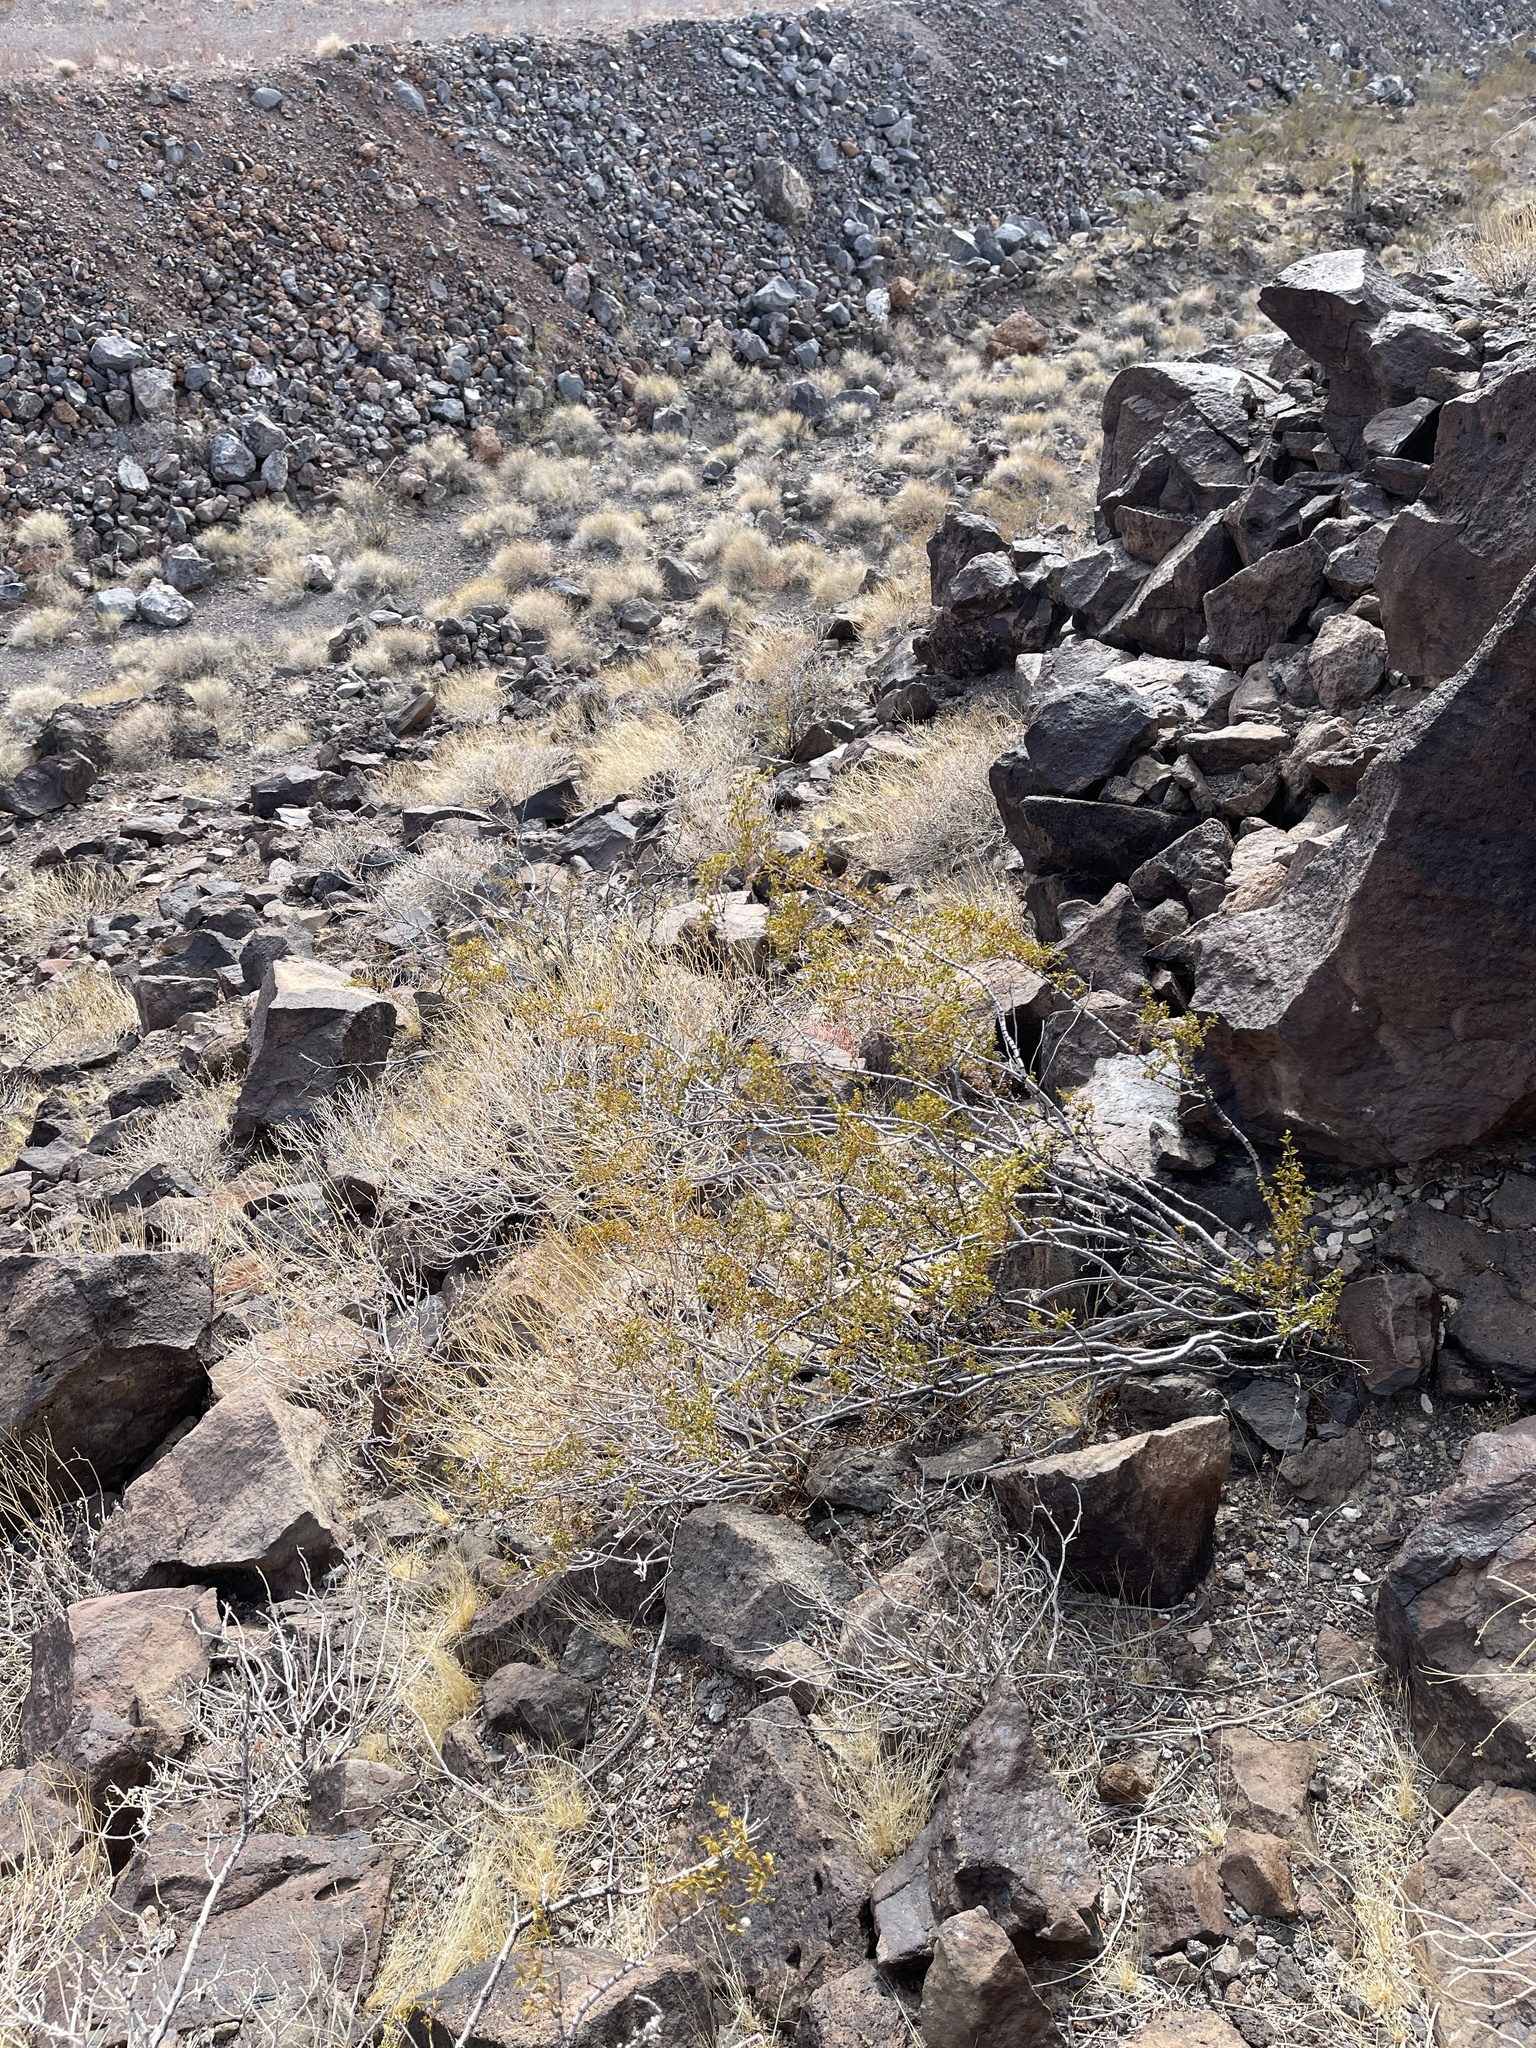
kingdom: Plantae
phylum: Tracheophyta
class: Magnoliopsida
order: Zygophyllales
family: Zygophyllaceae
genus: Larrea
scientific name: Larrea tridentata
